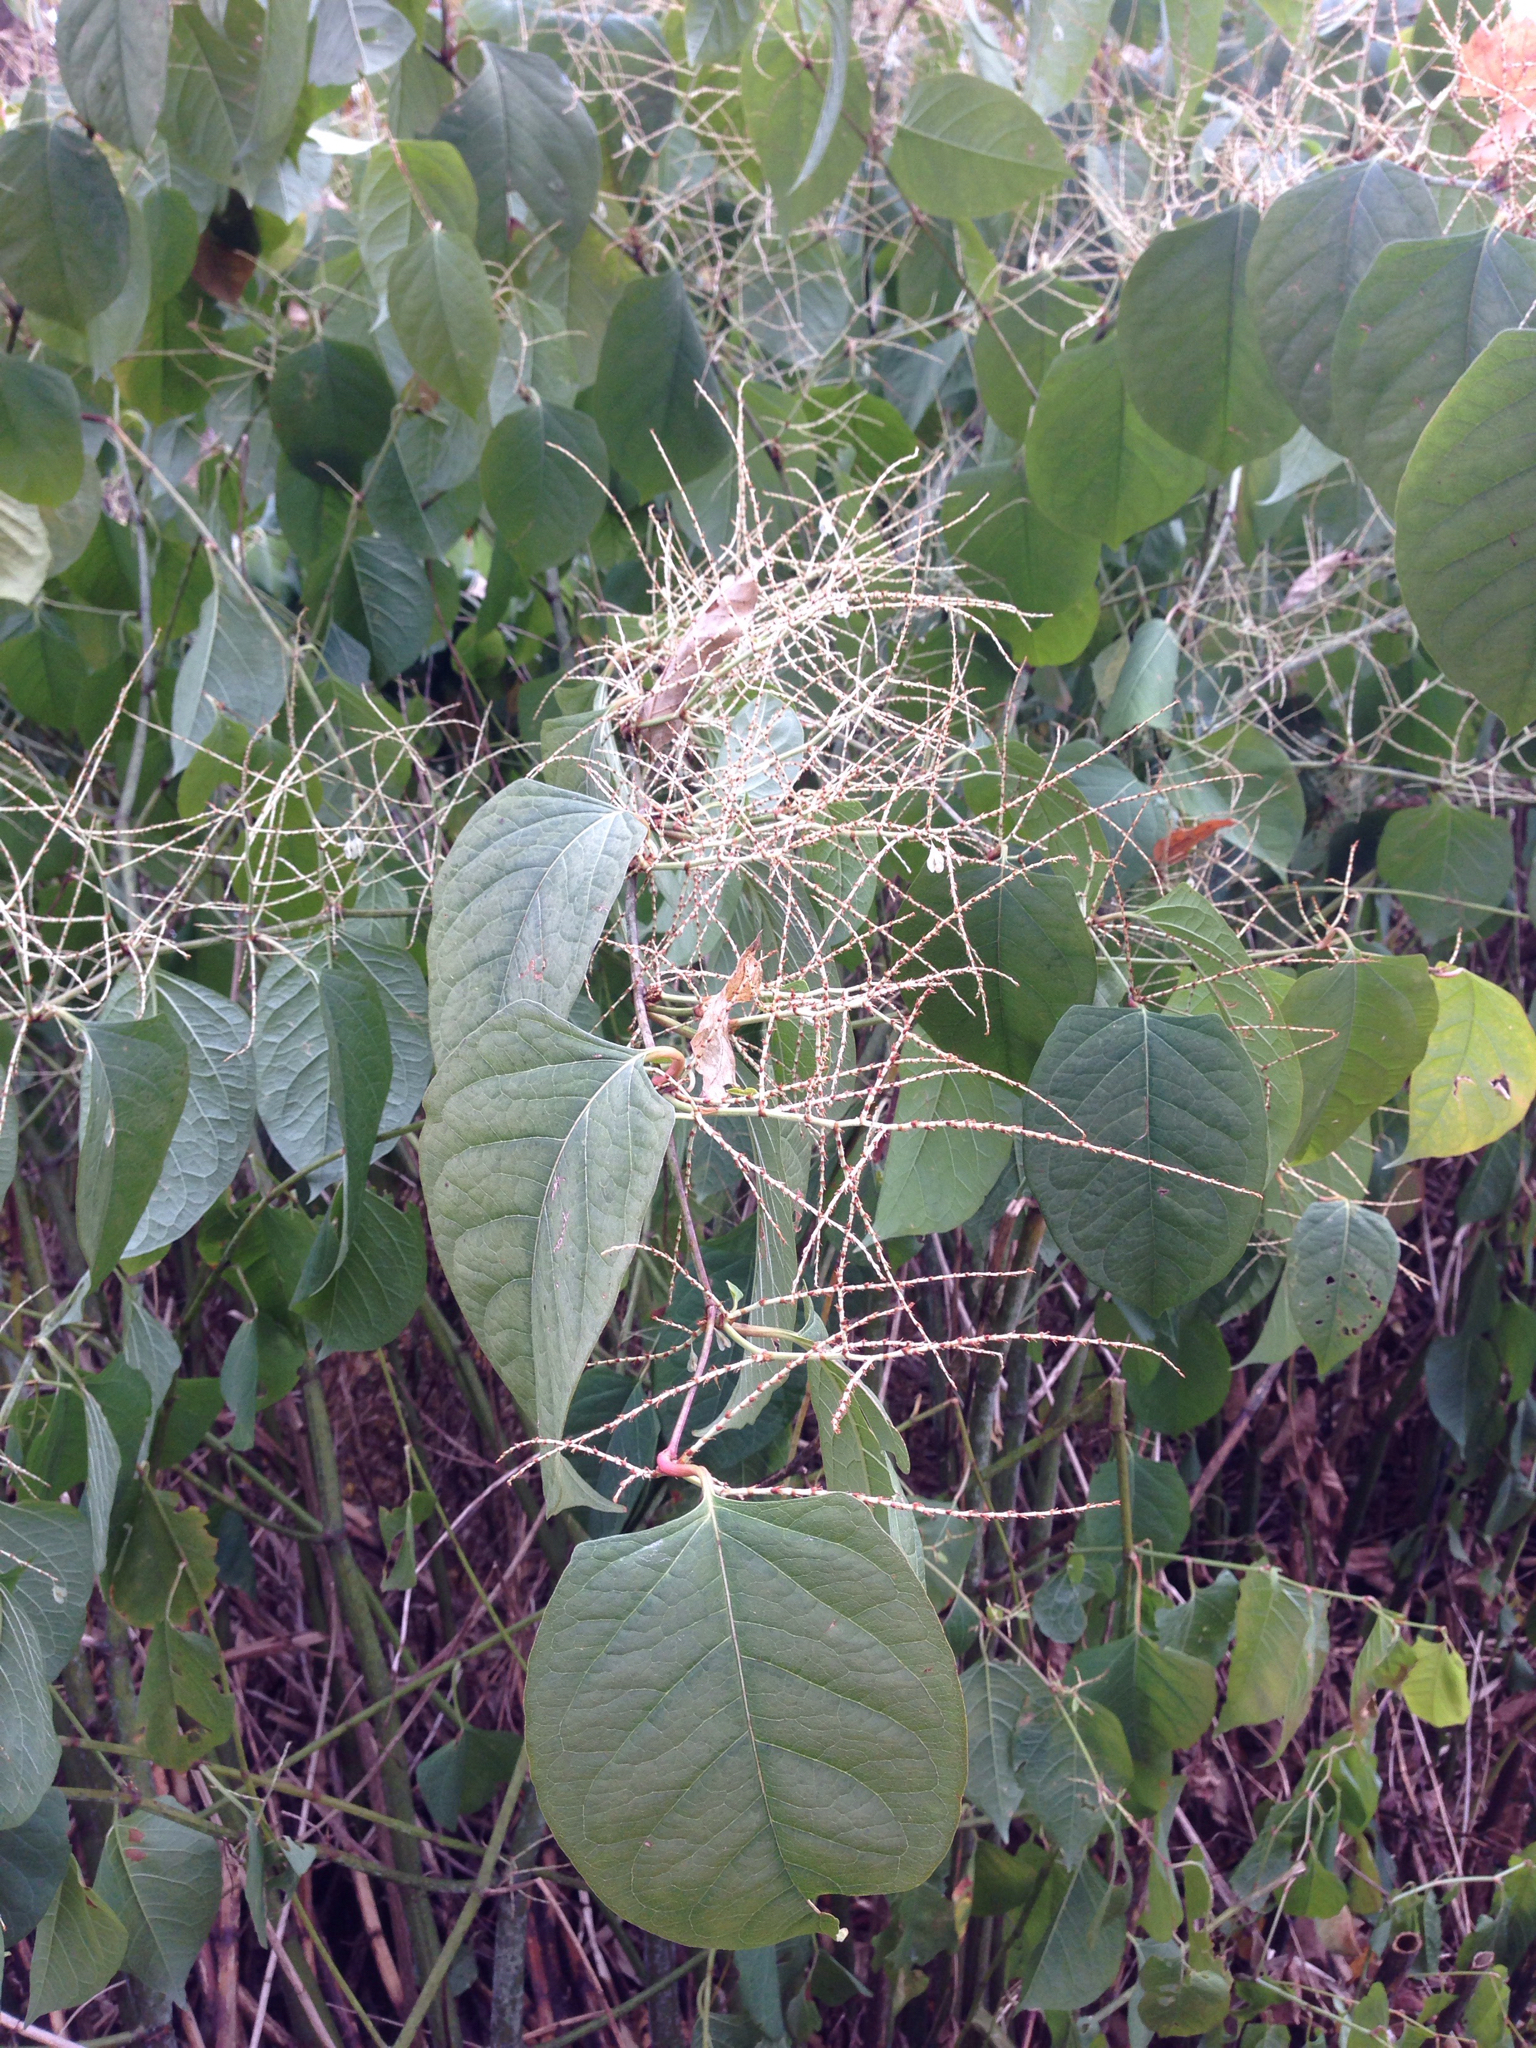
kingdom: Plantae
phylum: Tracheophyta
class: Magnoliopsida
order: Caryophyllales
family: Polygonaceae
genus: Reynoutria
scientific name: Reynoutria japonica
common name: Japanese knotweed
